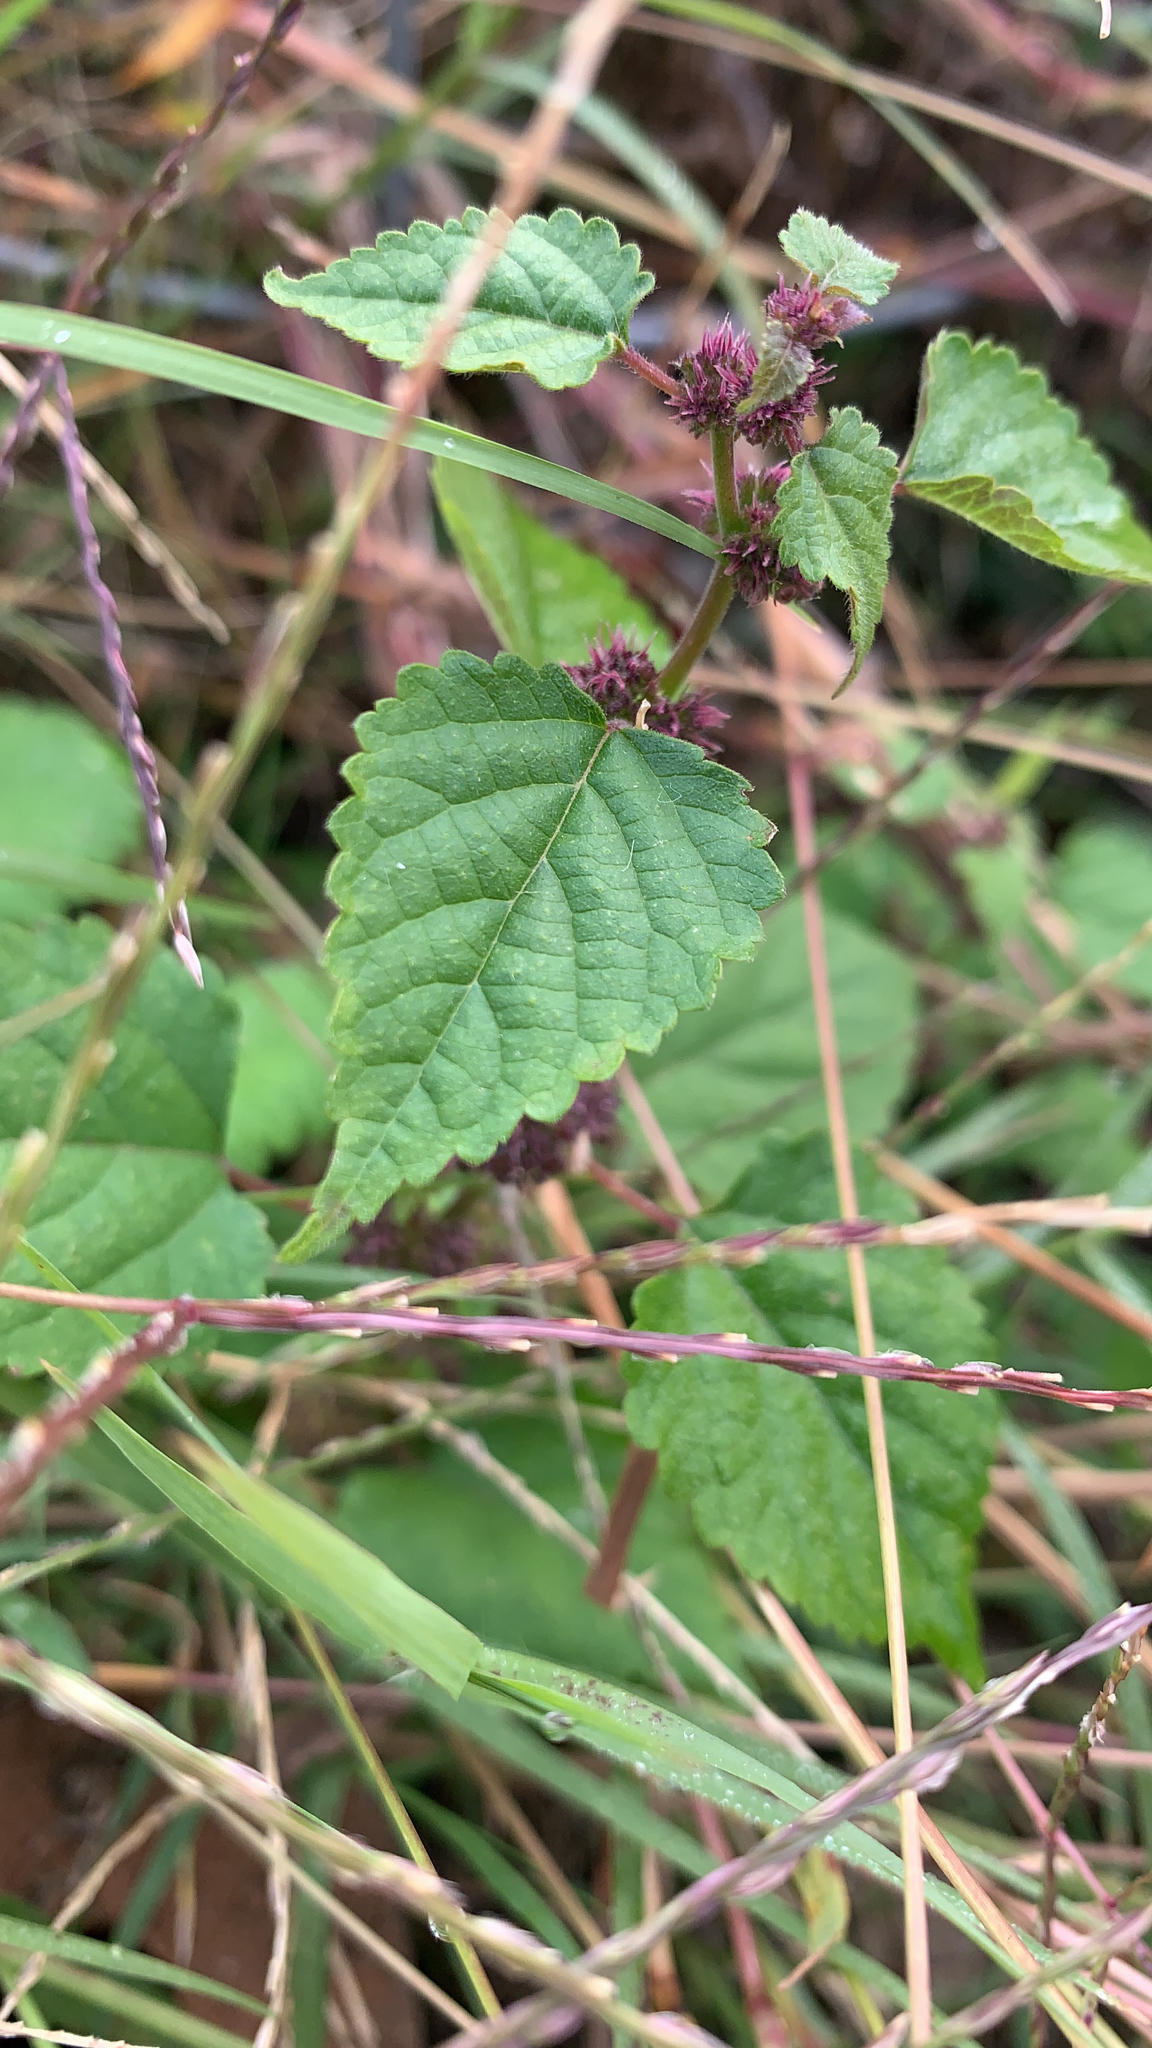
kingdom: Plantae
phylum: Tracheophyta
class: Magnoliopsida
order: Rosales
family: Moraceae
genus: Fatoua
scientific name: Fatoua villosa
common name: Hairy crabweed
